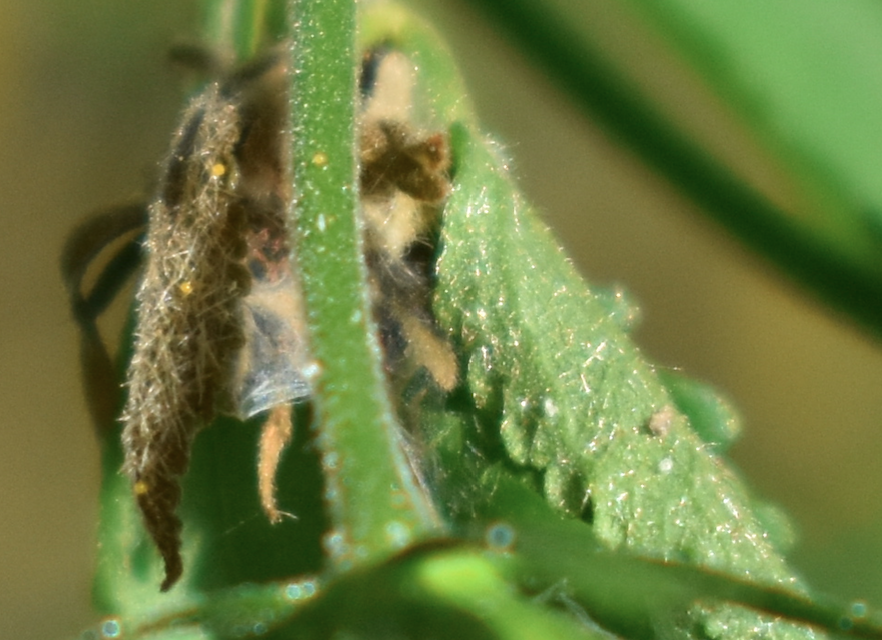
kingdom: Plantae
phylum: Tracheophyta
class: Magnoliopsida
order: Malvales
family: Malvaceae
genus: Pavonia
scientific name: Pavonia sepium
